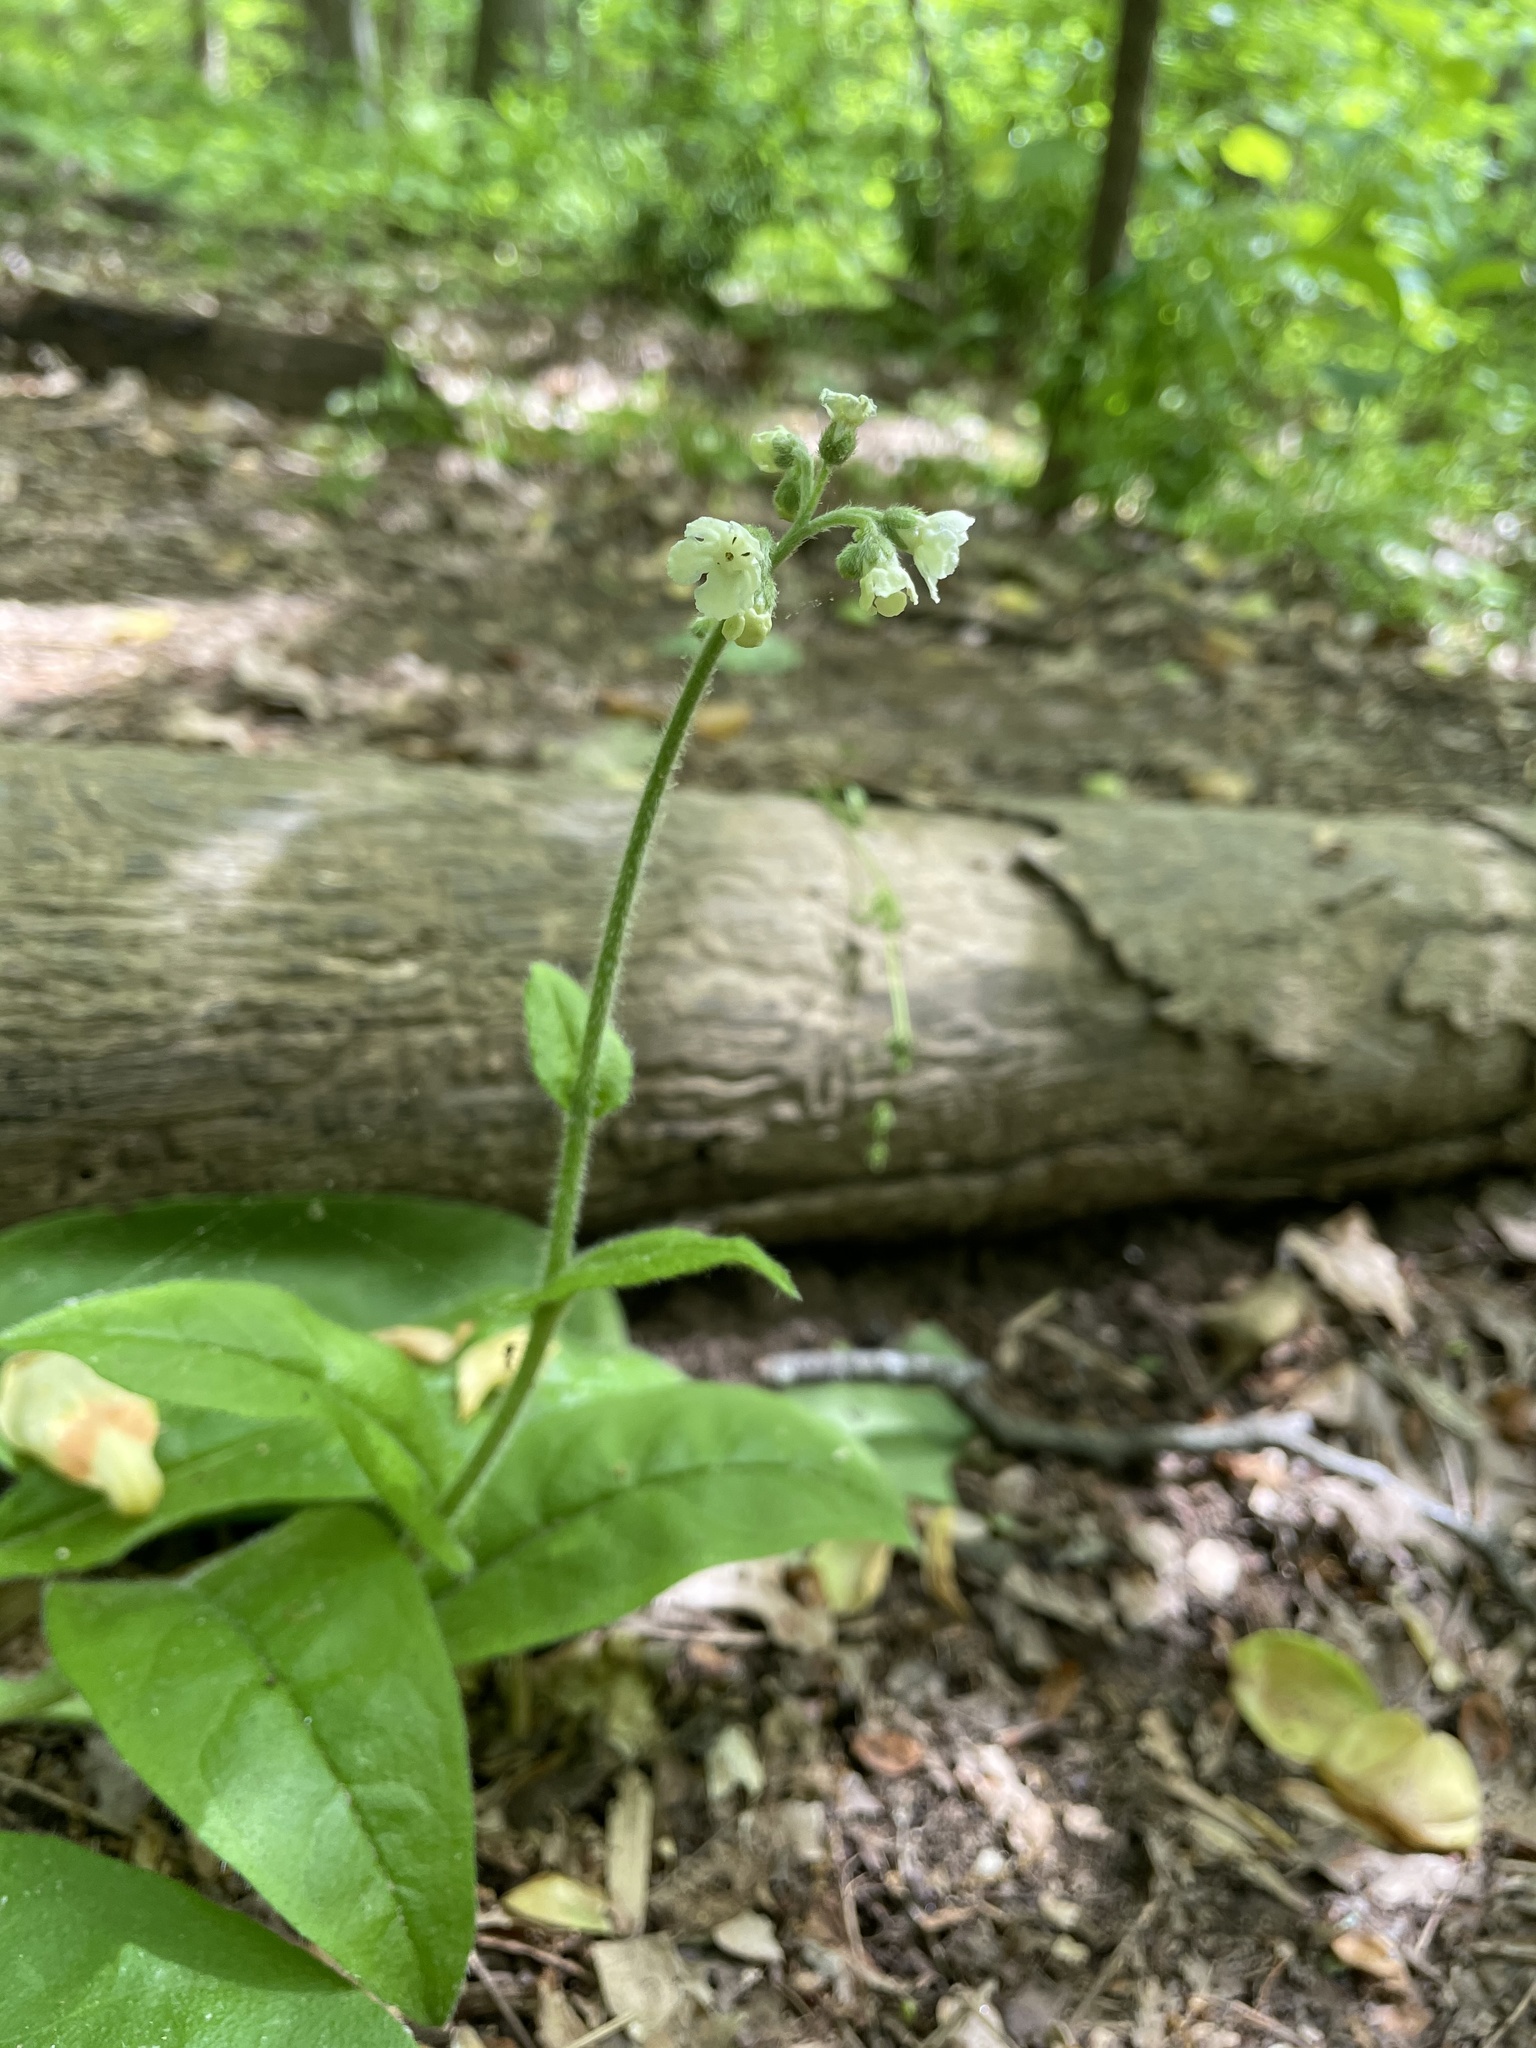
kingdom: Plantae
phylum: Tracheophyta
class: Magnoliopsida
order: Boraginales
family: Boraginaceae
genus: Andersonglossum
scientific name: Andersonglossum virginianum
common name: Wild comfrey
